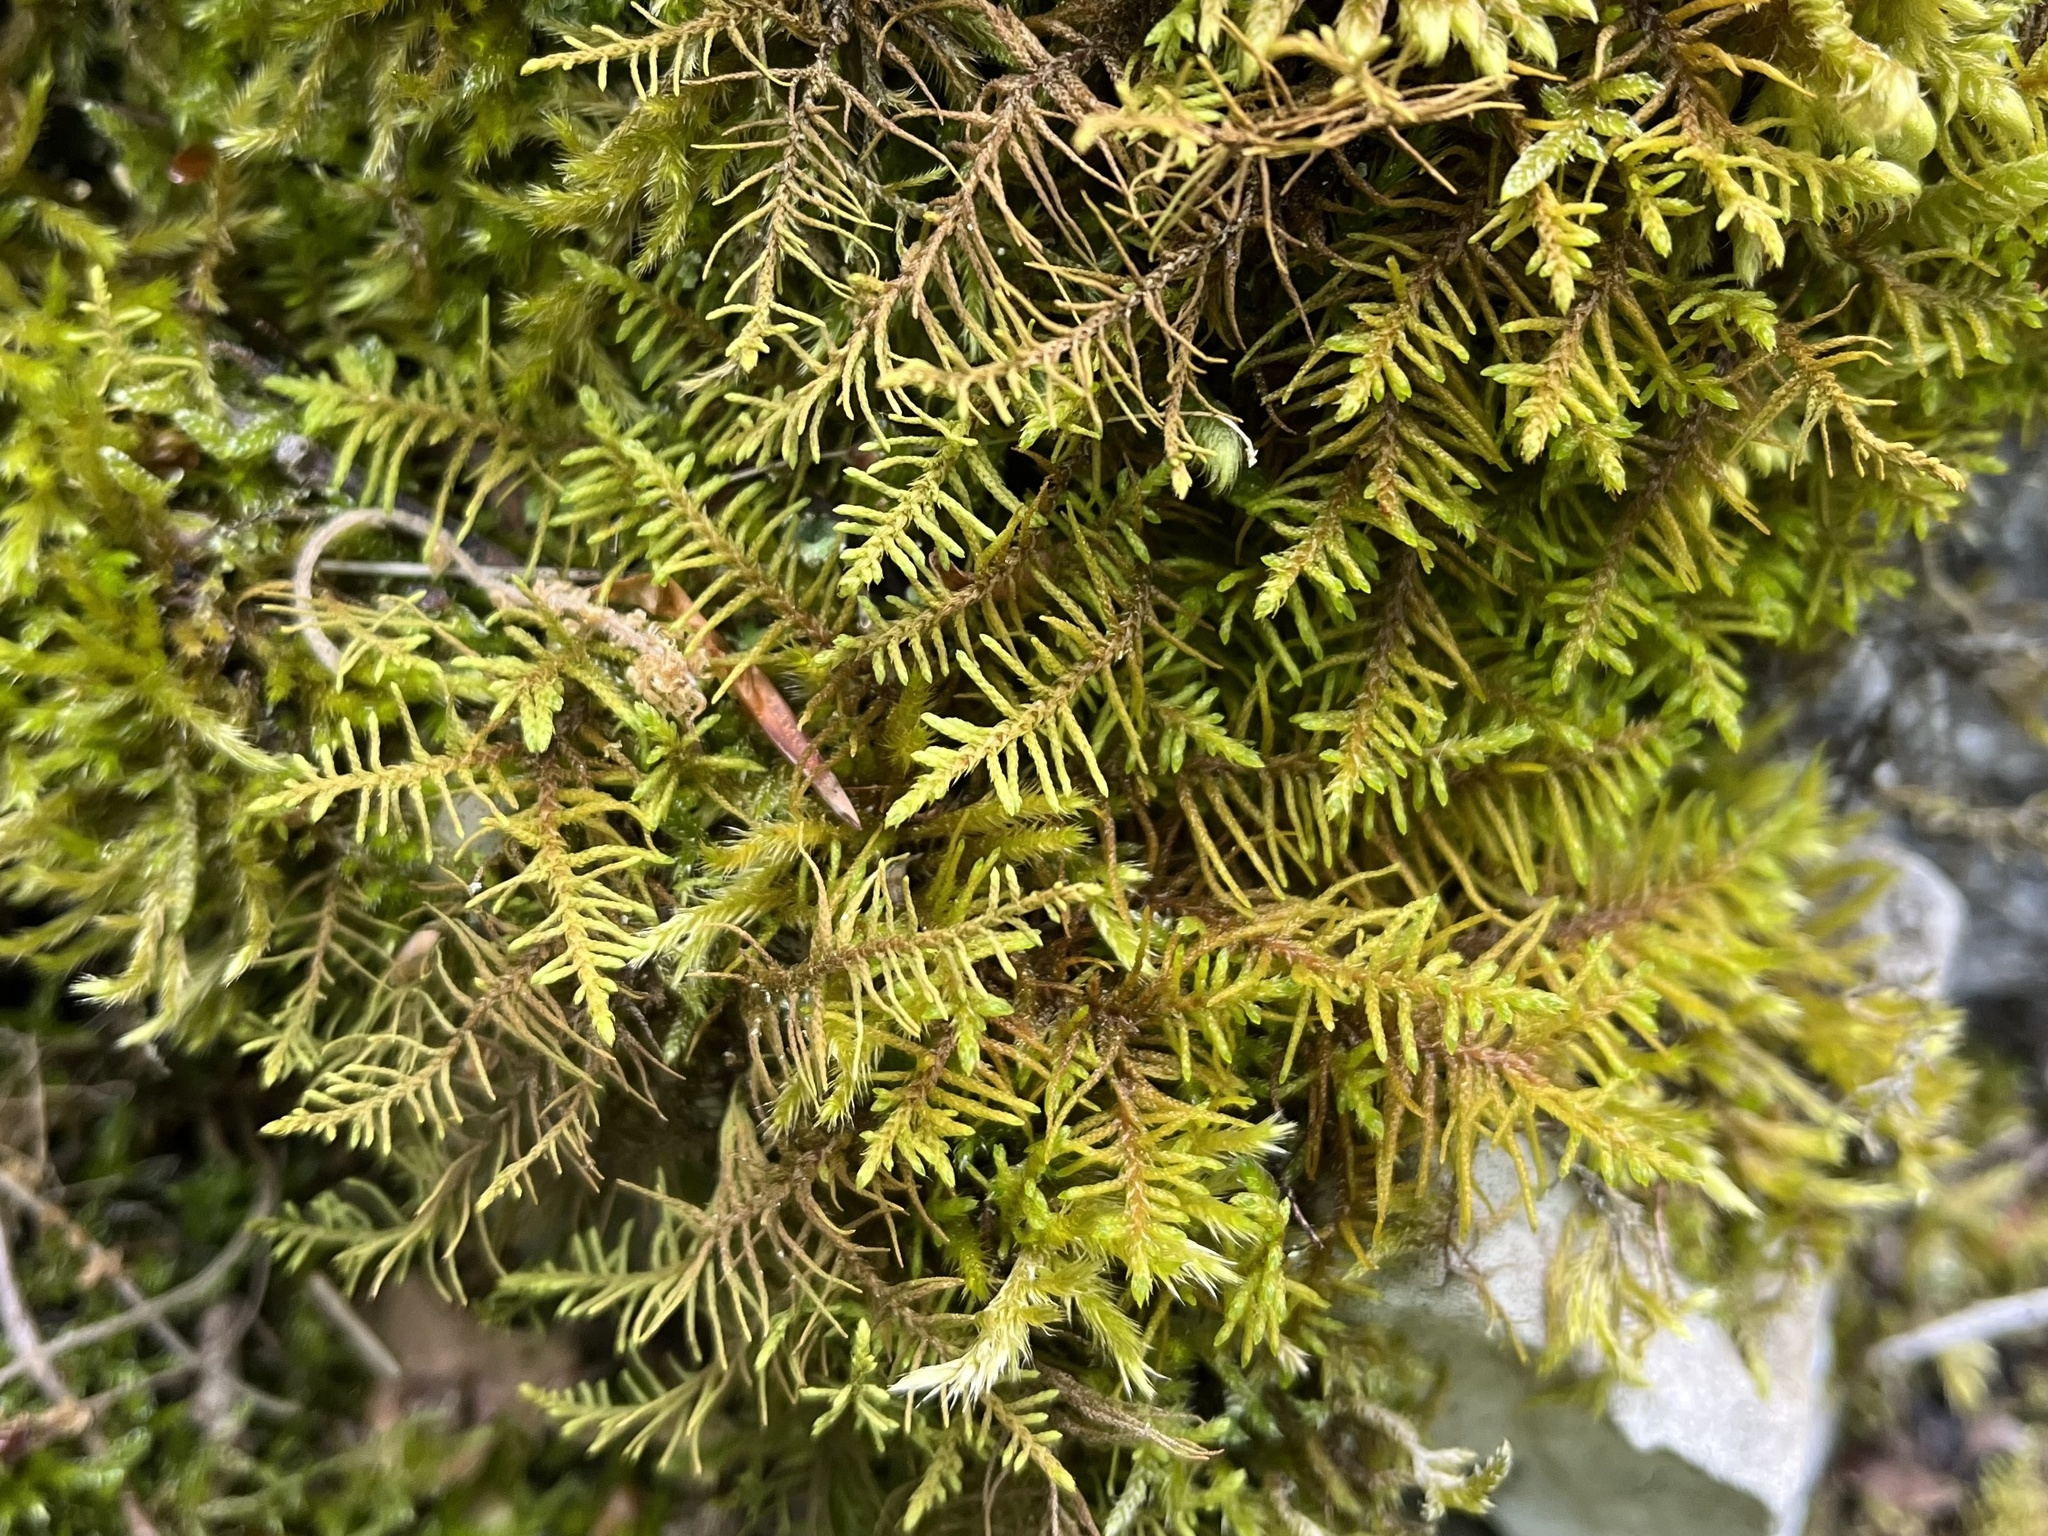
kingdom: Plantae
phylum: Bryophyta
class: Bryopsida
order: Hypnales
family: Thuidiaceae
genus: Abietinella
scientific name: Abietinella abietina
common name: Wiry fern moss
